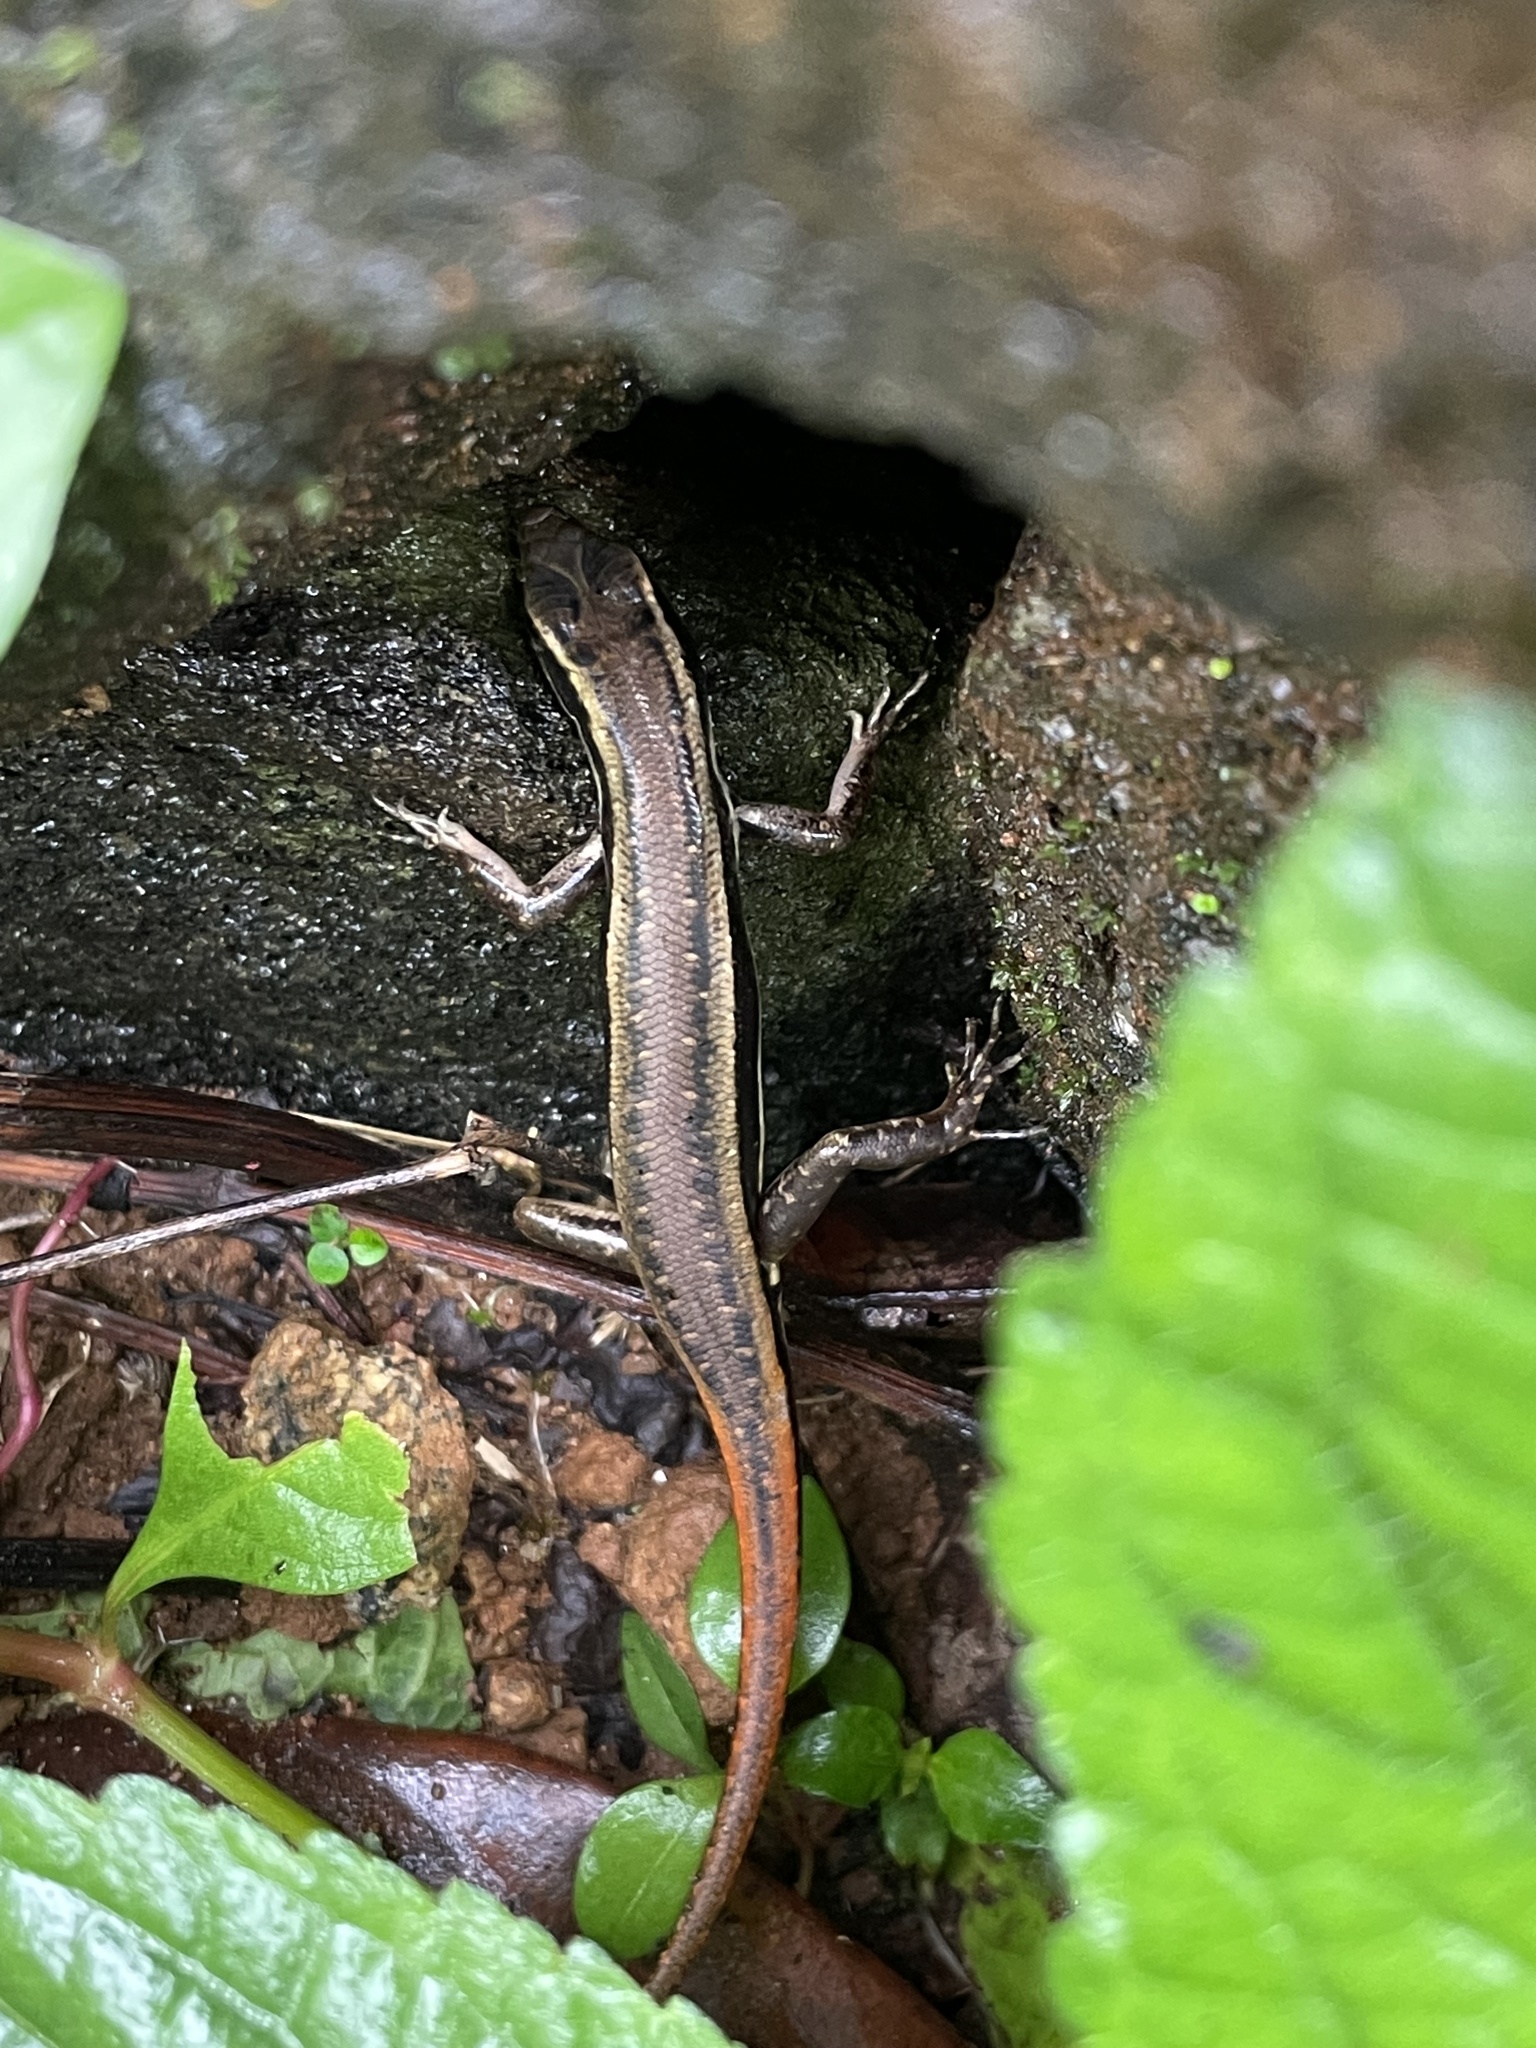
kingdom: Animalia
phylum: Chordata
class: Squamata
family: Scincidae
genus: Sphenomorphus
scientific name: Sphenomorphus dussumieri
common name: Dussumier's forest skink
